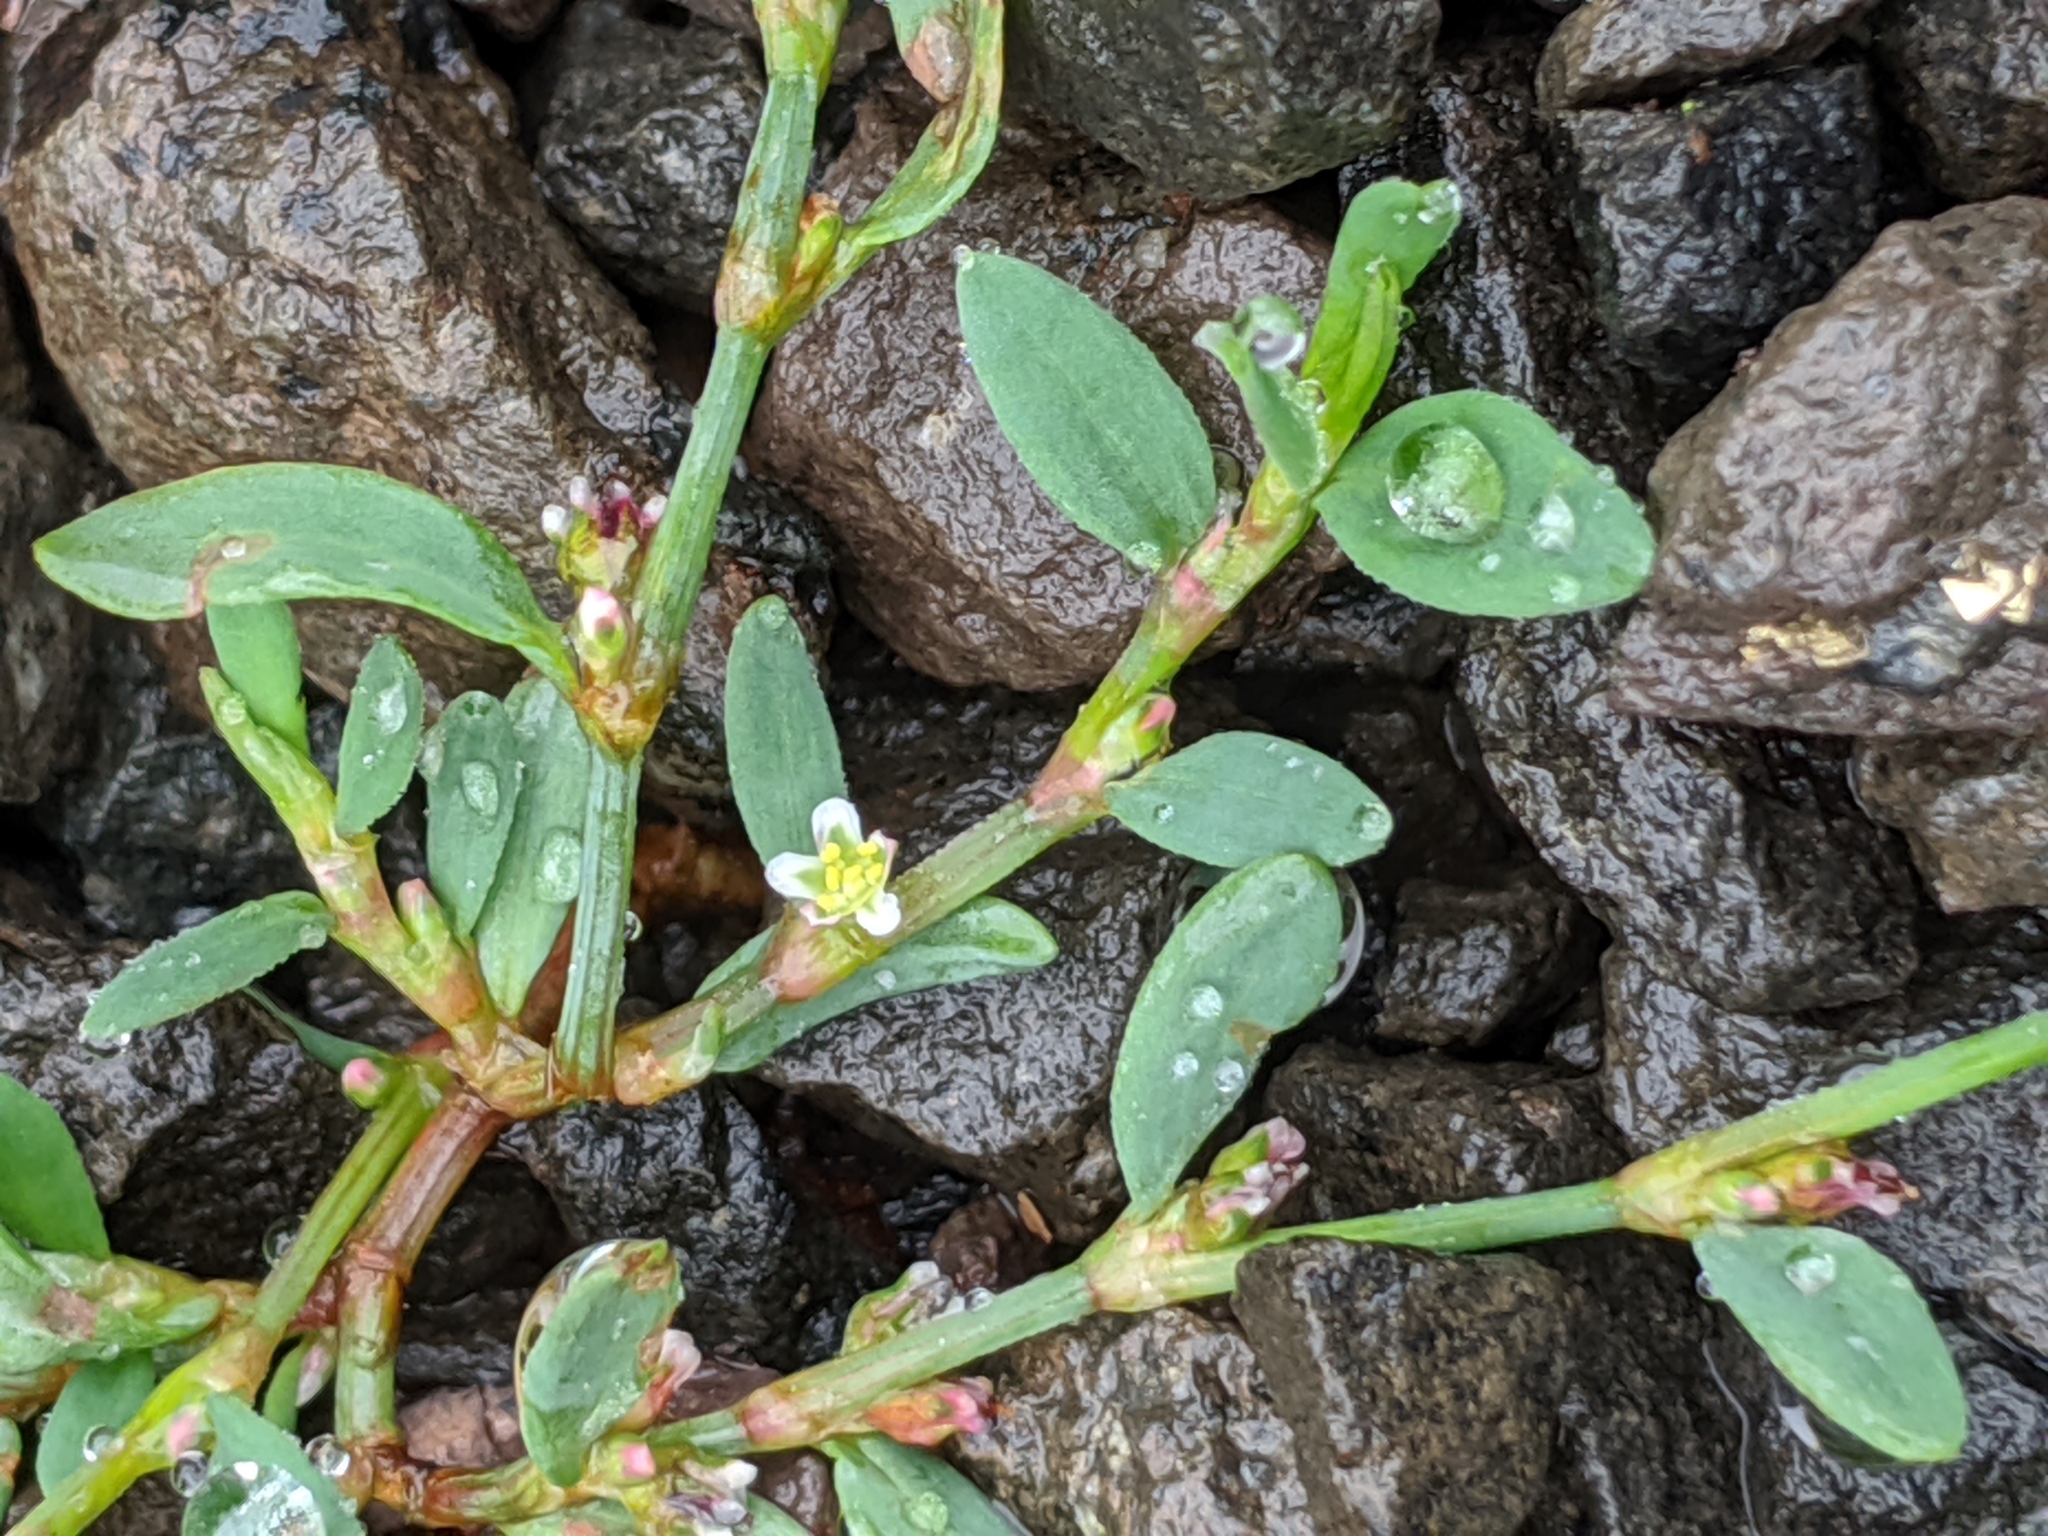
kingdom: Plantae
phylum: Tracheophyta
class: Magnoliopsida
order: Caryophyllales
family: Polygonaceae
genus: Polygonum
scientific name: Polygonum aviculare
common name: Prostrate knotweed
